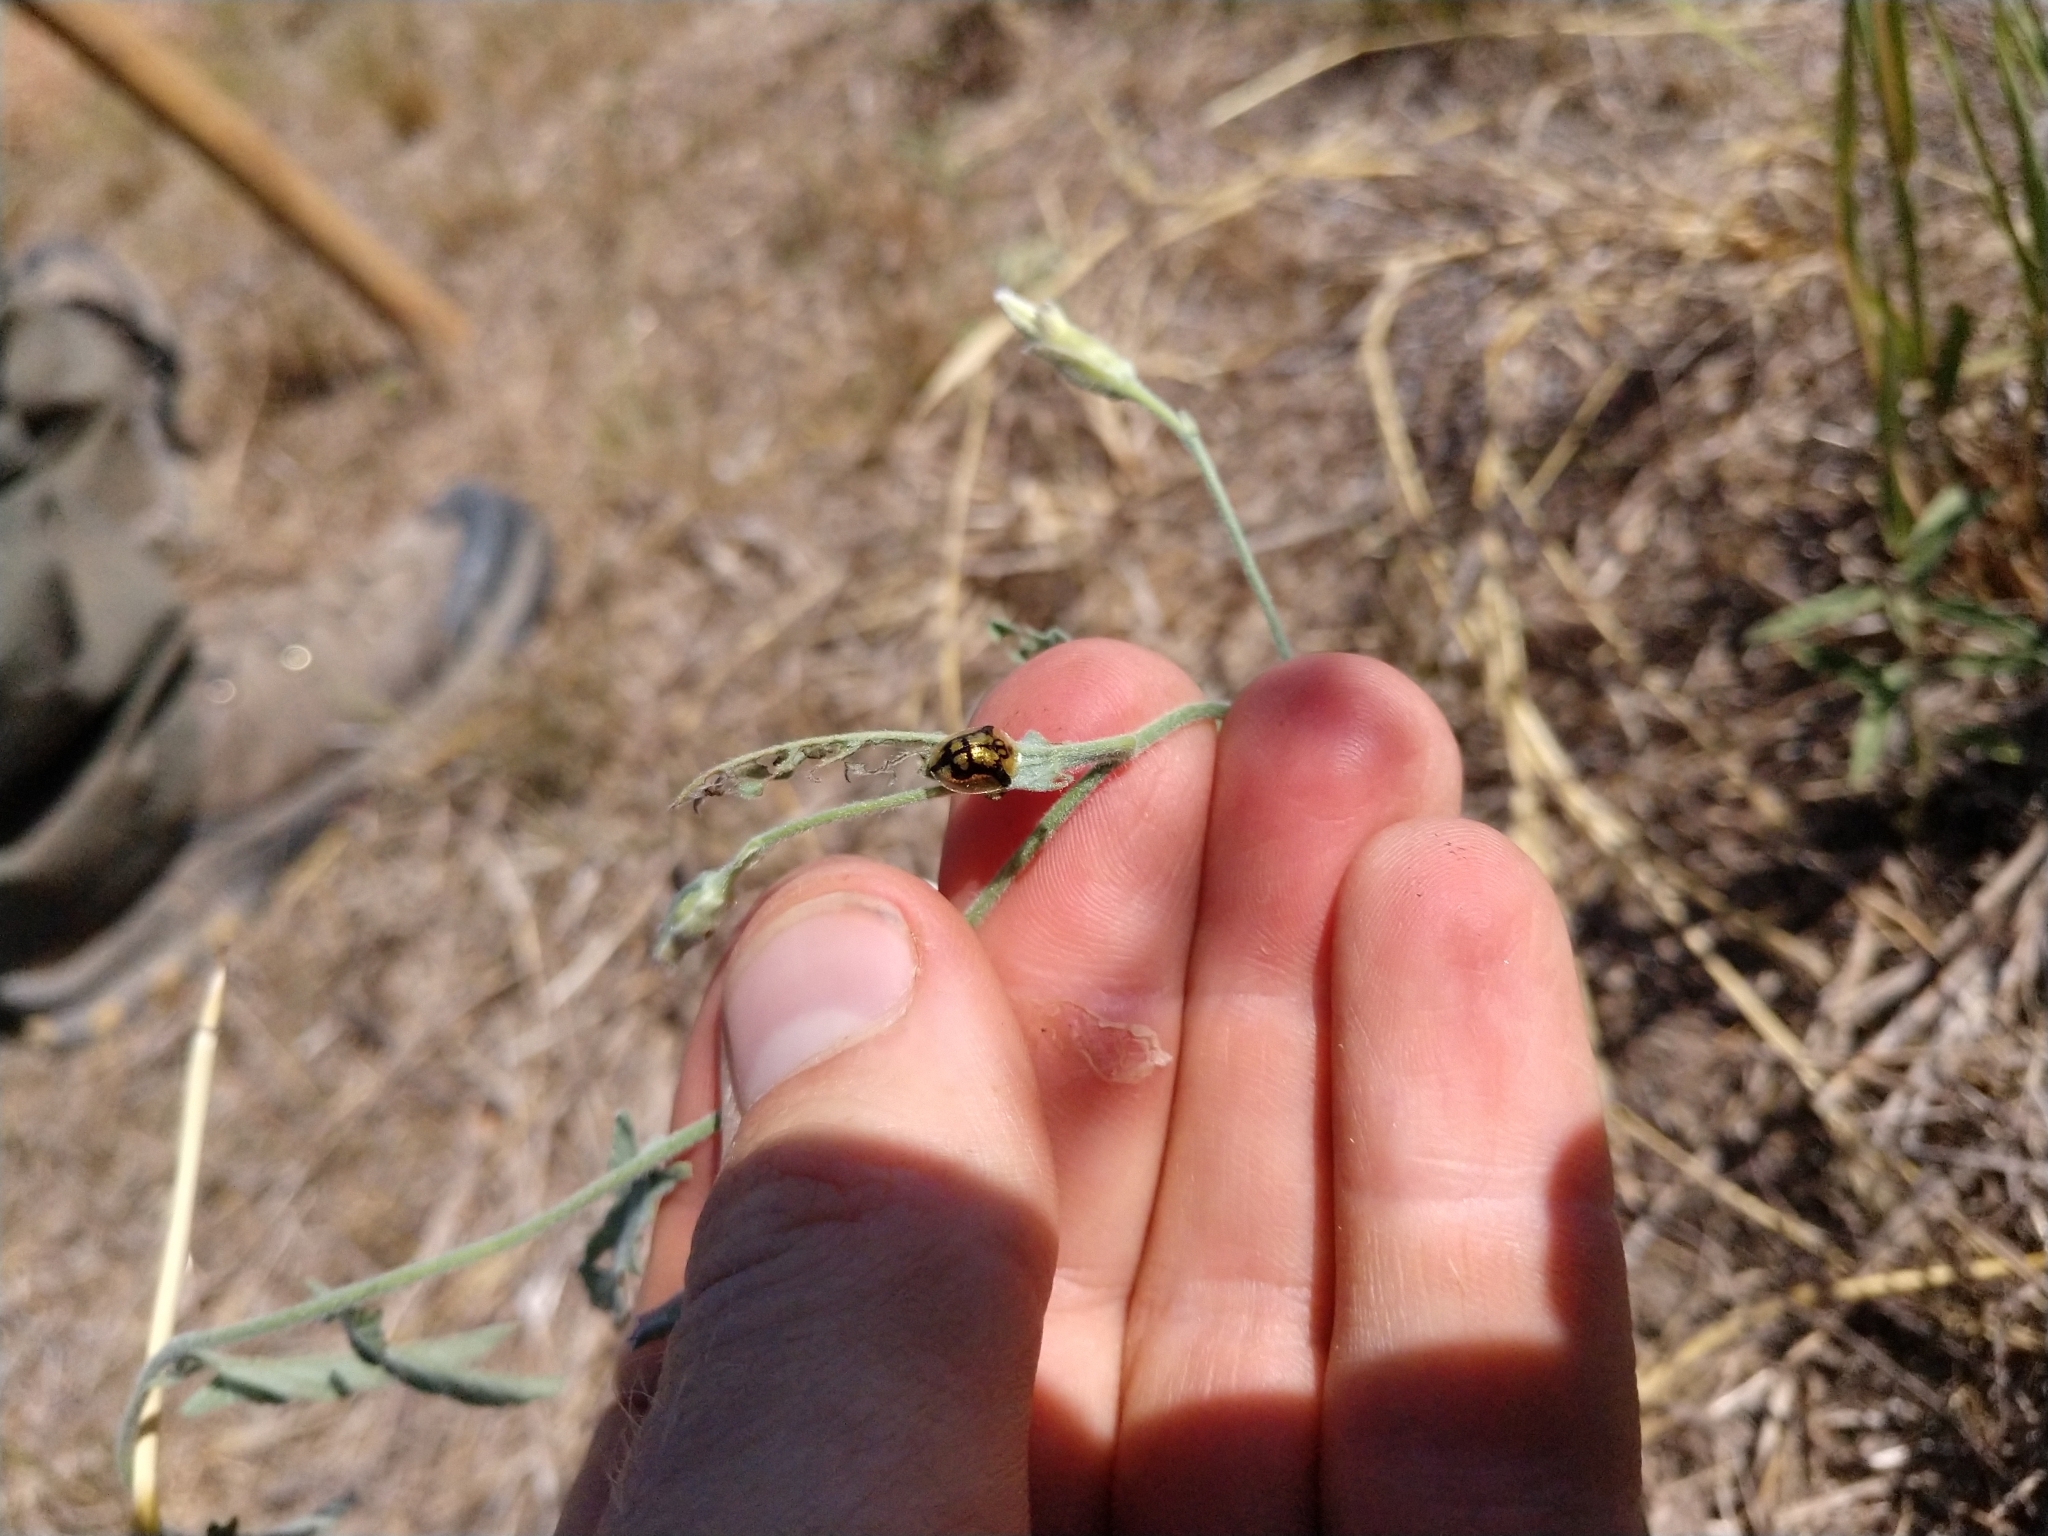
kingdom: Animalia
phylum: Arthropoda
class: Insecta
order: Coleoptera
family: Chrysomelidae
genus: Deloyala
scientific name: Deloyala guttata
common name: Mottled tortoise beetle
